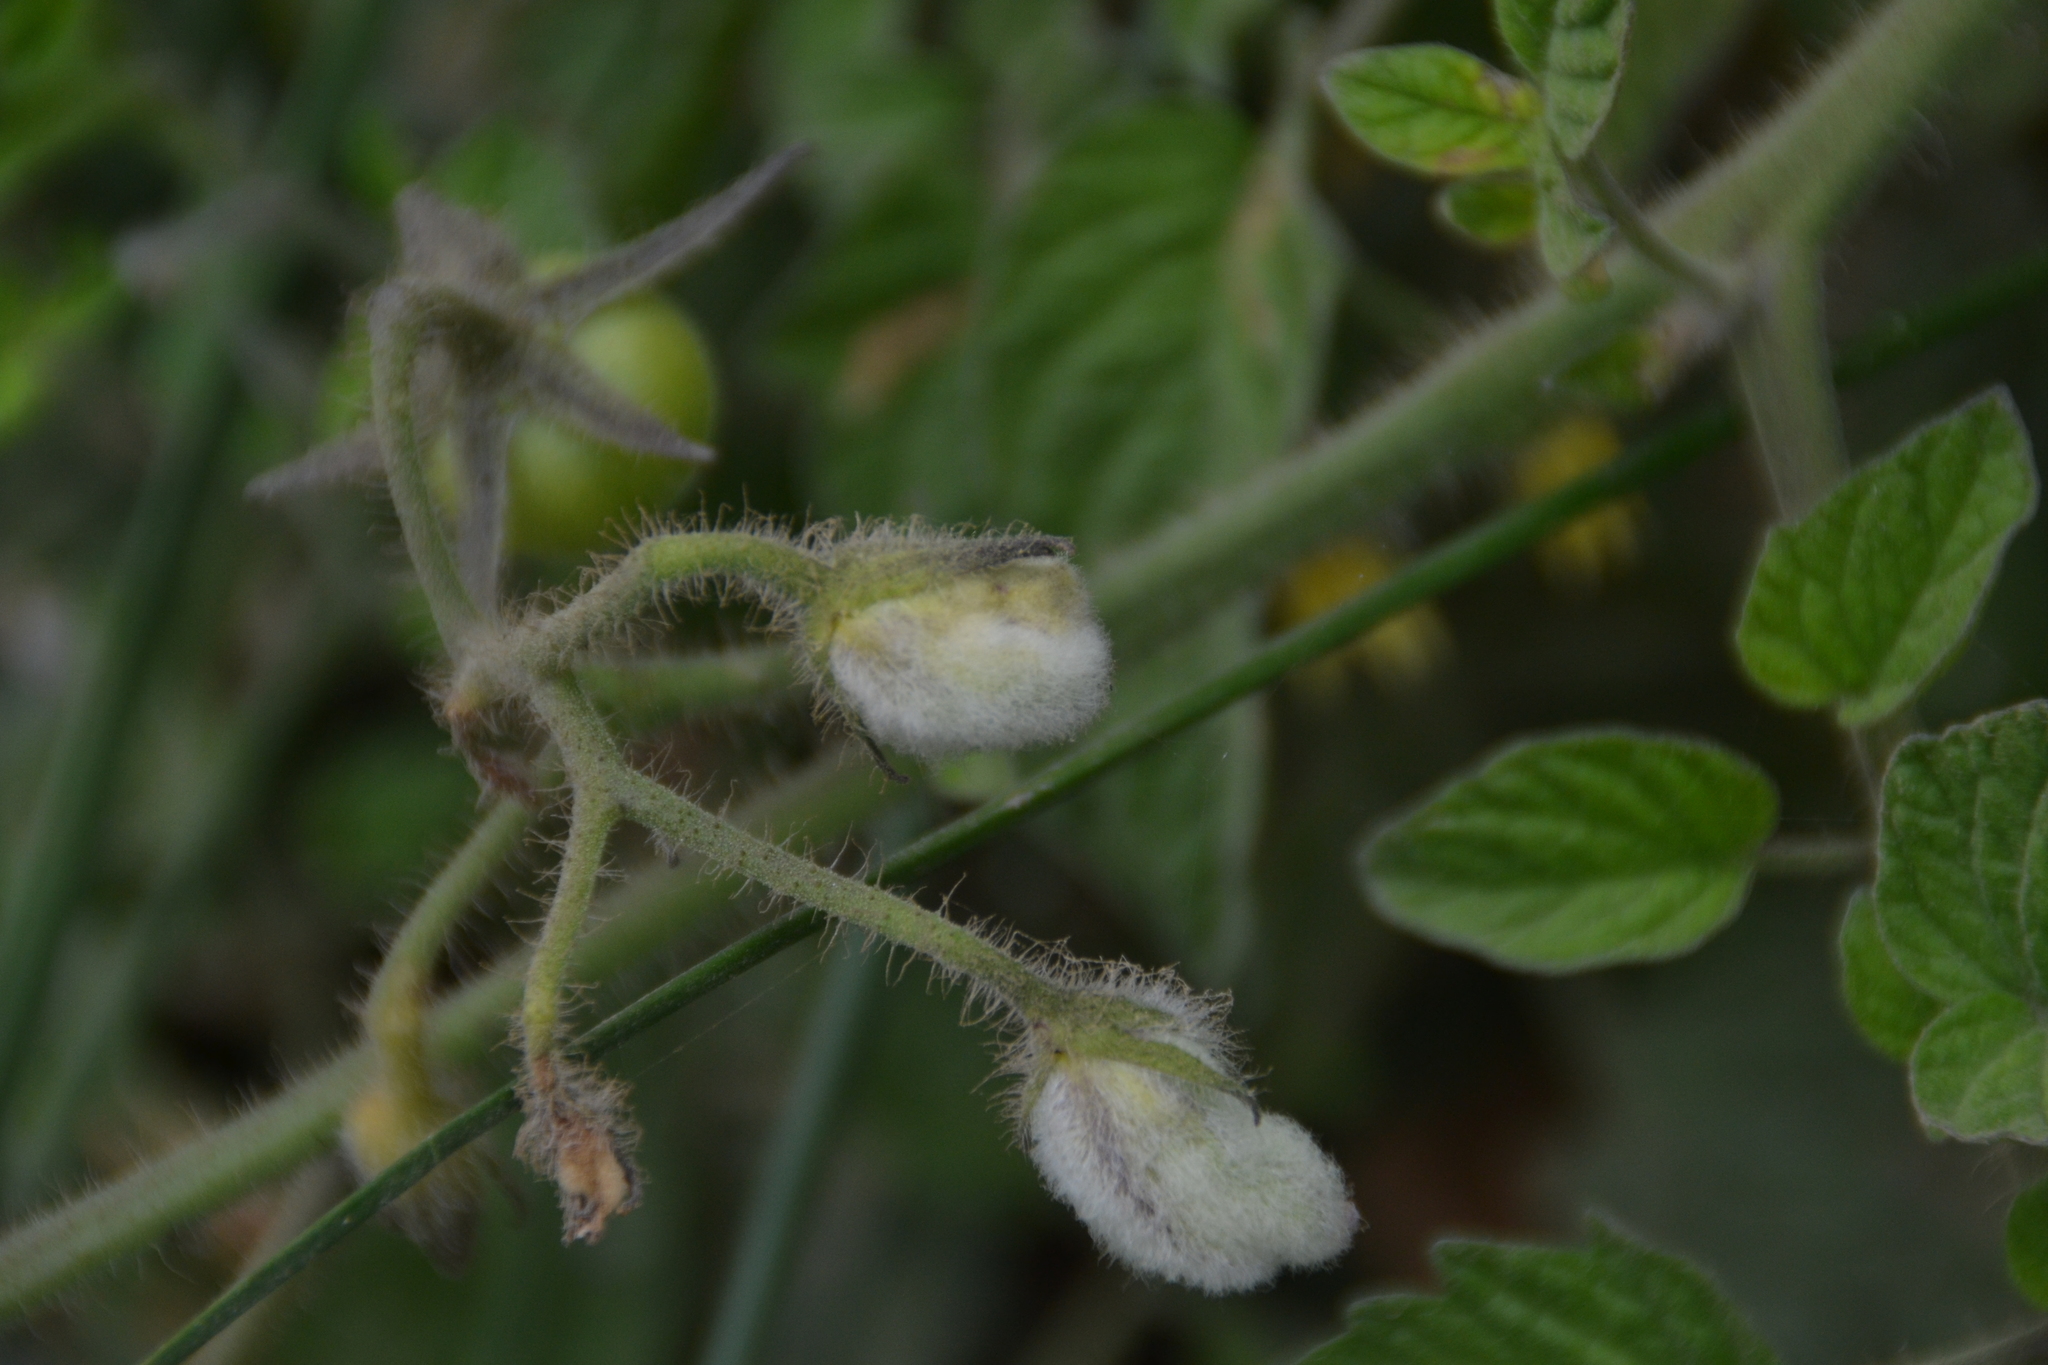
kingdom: Plantae
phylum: Tracheophyta
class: Magnoliopsida
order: Solanales
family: Solanaceae
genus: Solanum
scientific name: Solanum lycopersicum
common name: Garden tomato
